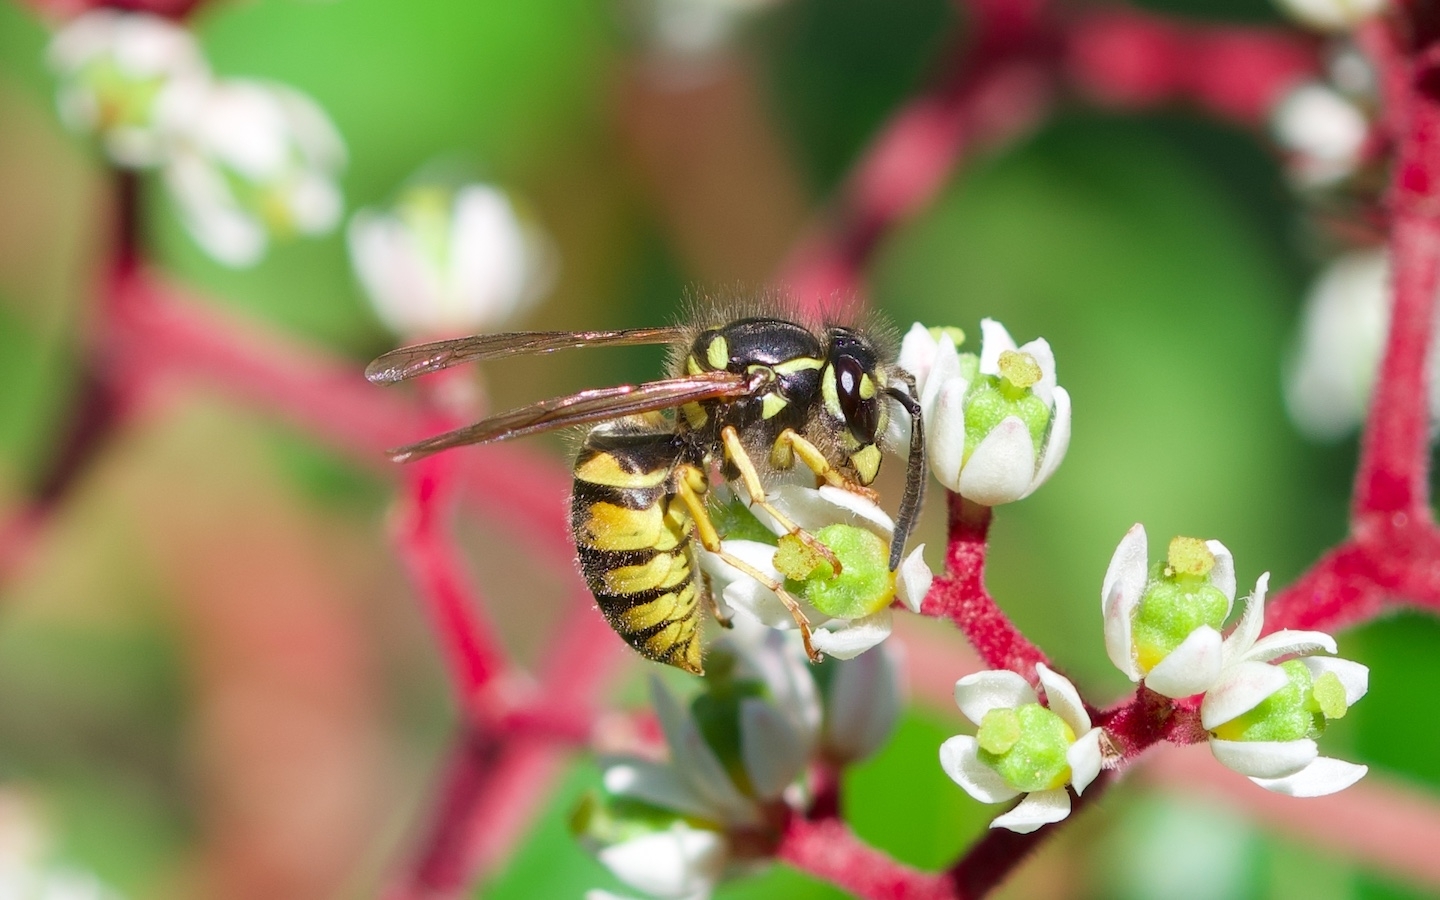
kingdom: Animalia
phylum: Arthropoda
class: Insecta
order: Hymenoptera
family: Vespidae
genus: Vespula
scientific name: Vespula vulgaris
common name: Common wasp
